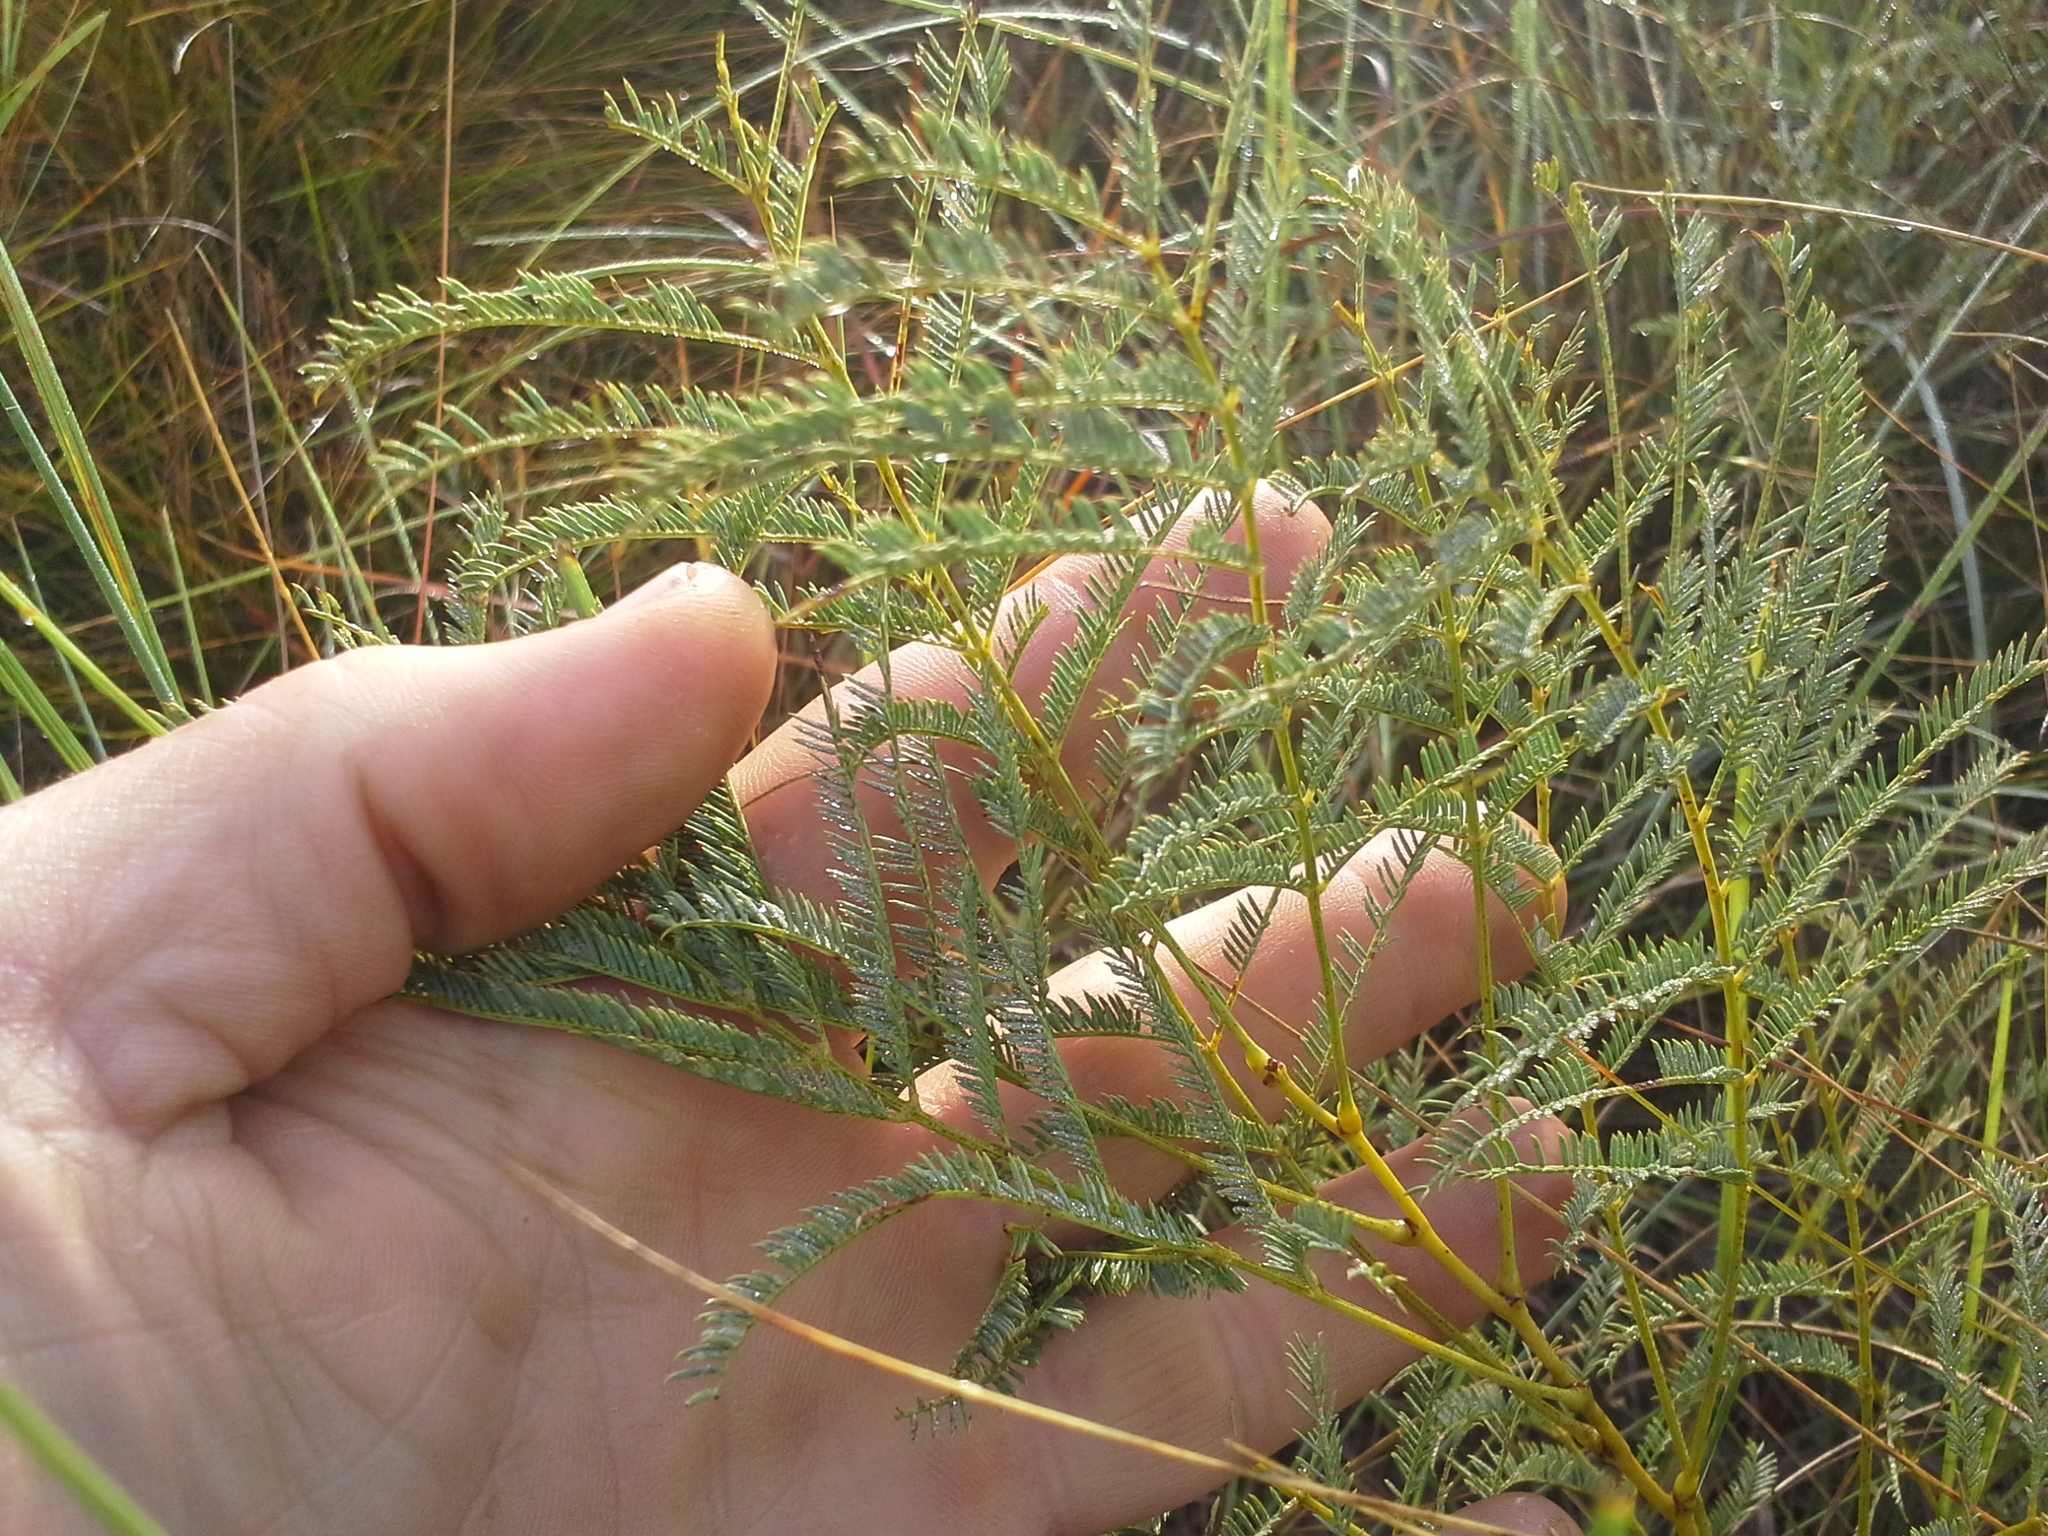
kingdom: Plantae
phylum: Tracheophyta
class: Magnoliopsida
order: Fabales
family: Fabaceae
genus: Elephantorrhiza
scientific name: Elephantorrhiza elephantina
